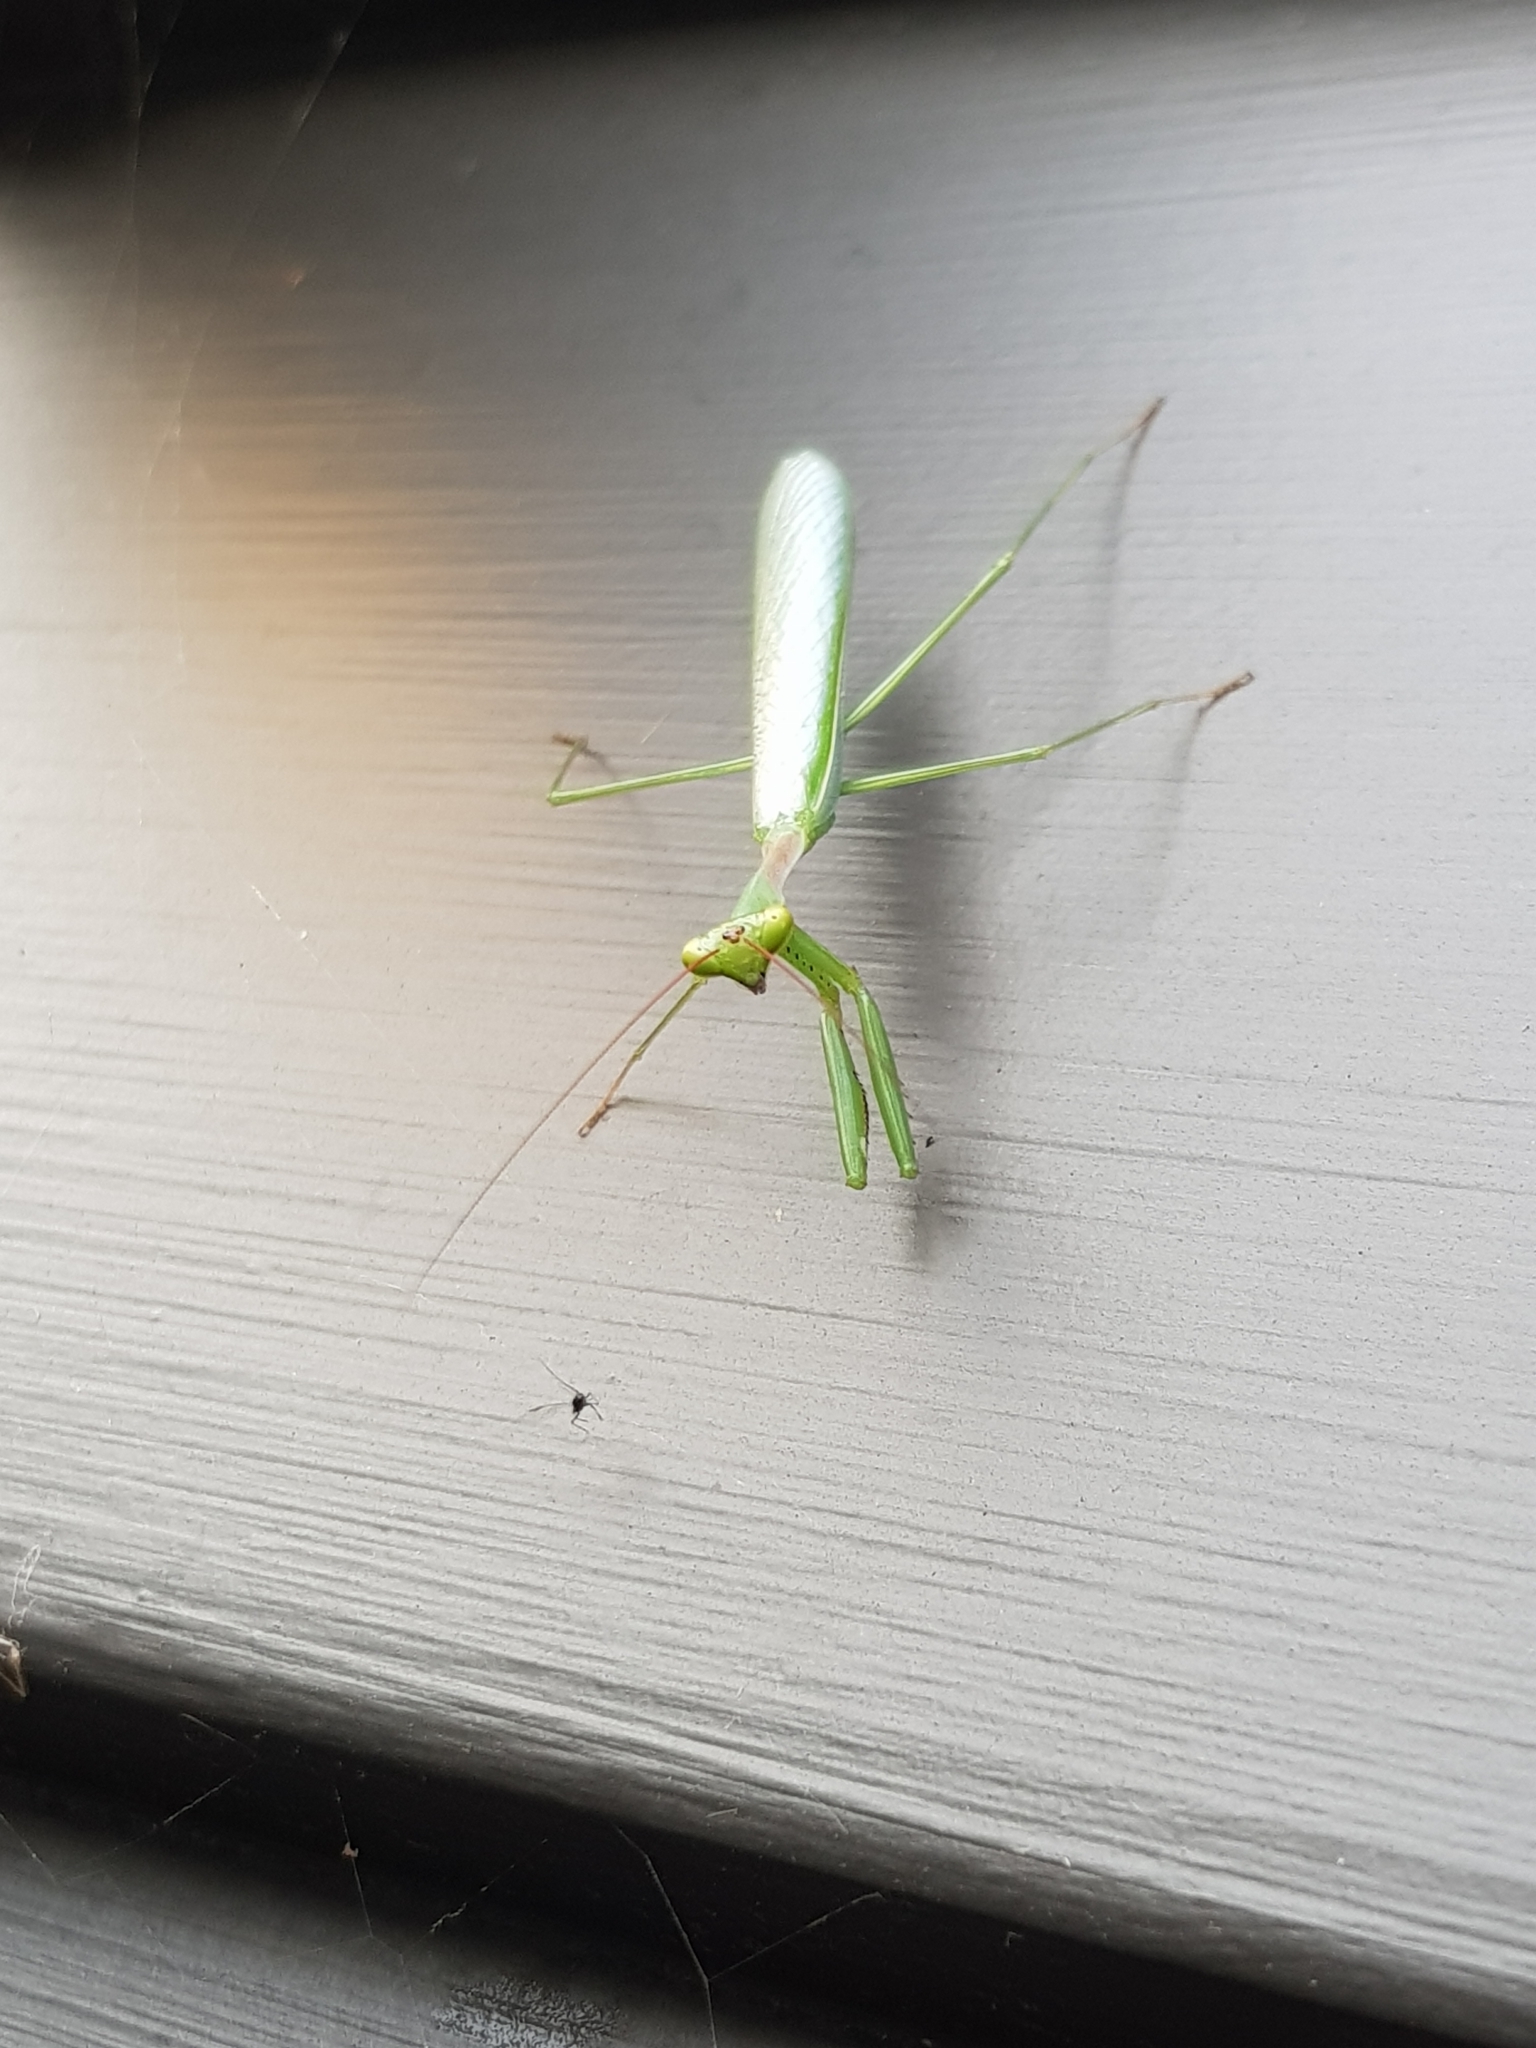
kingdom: Animalia
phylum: Arthropoda
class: Insecta
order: Mantodea
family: Miomantidae
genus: Miomantis
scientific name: Miomantis caffra
